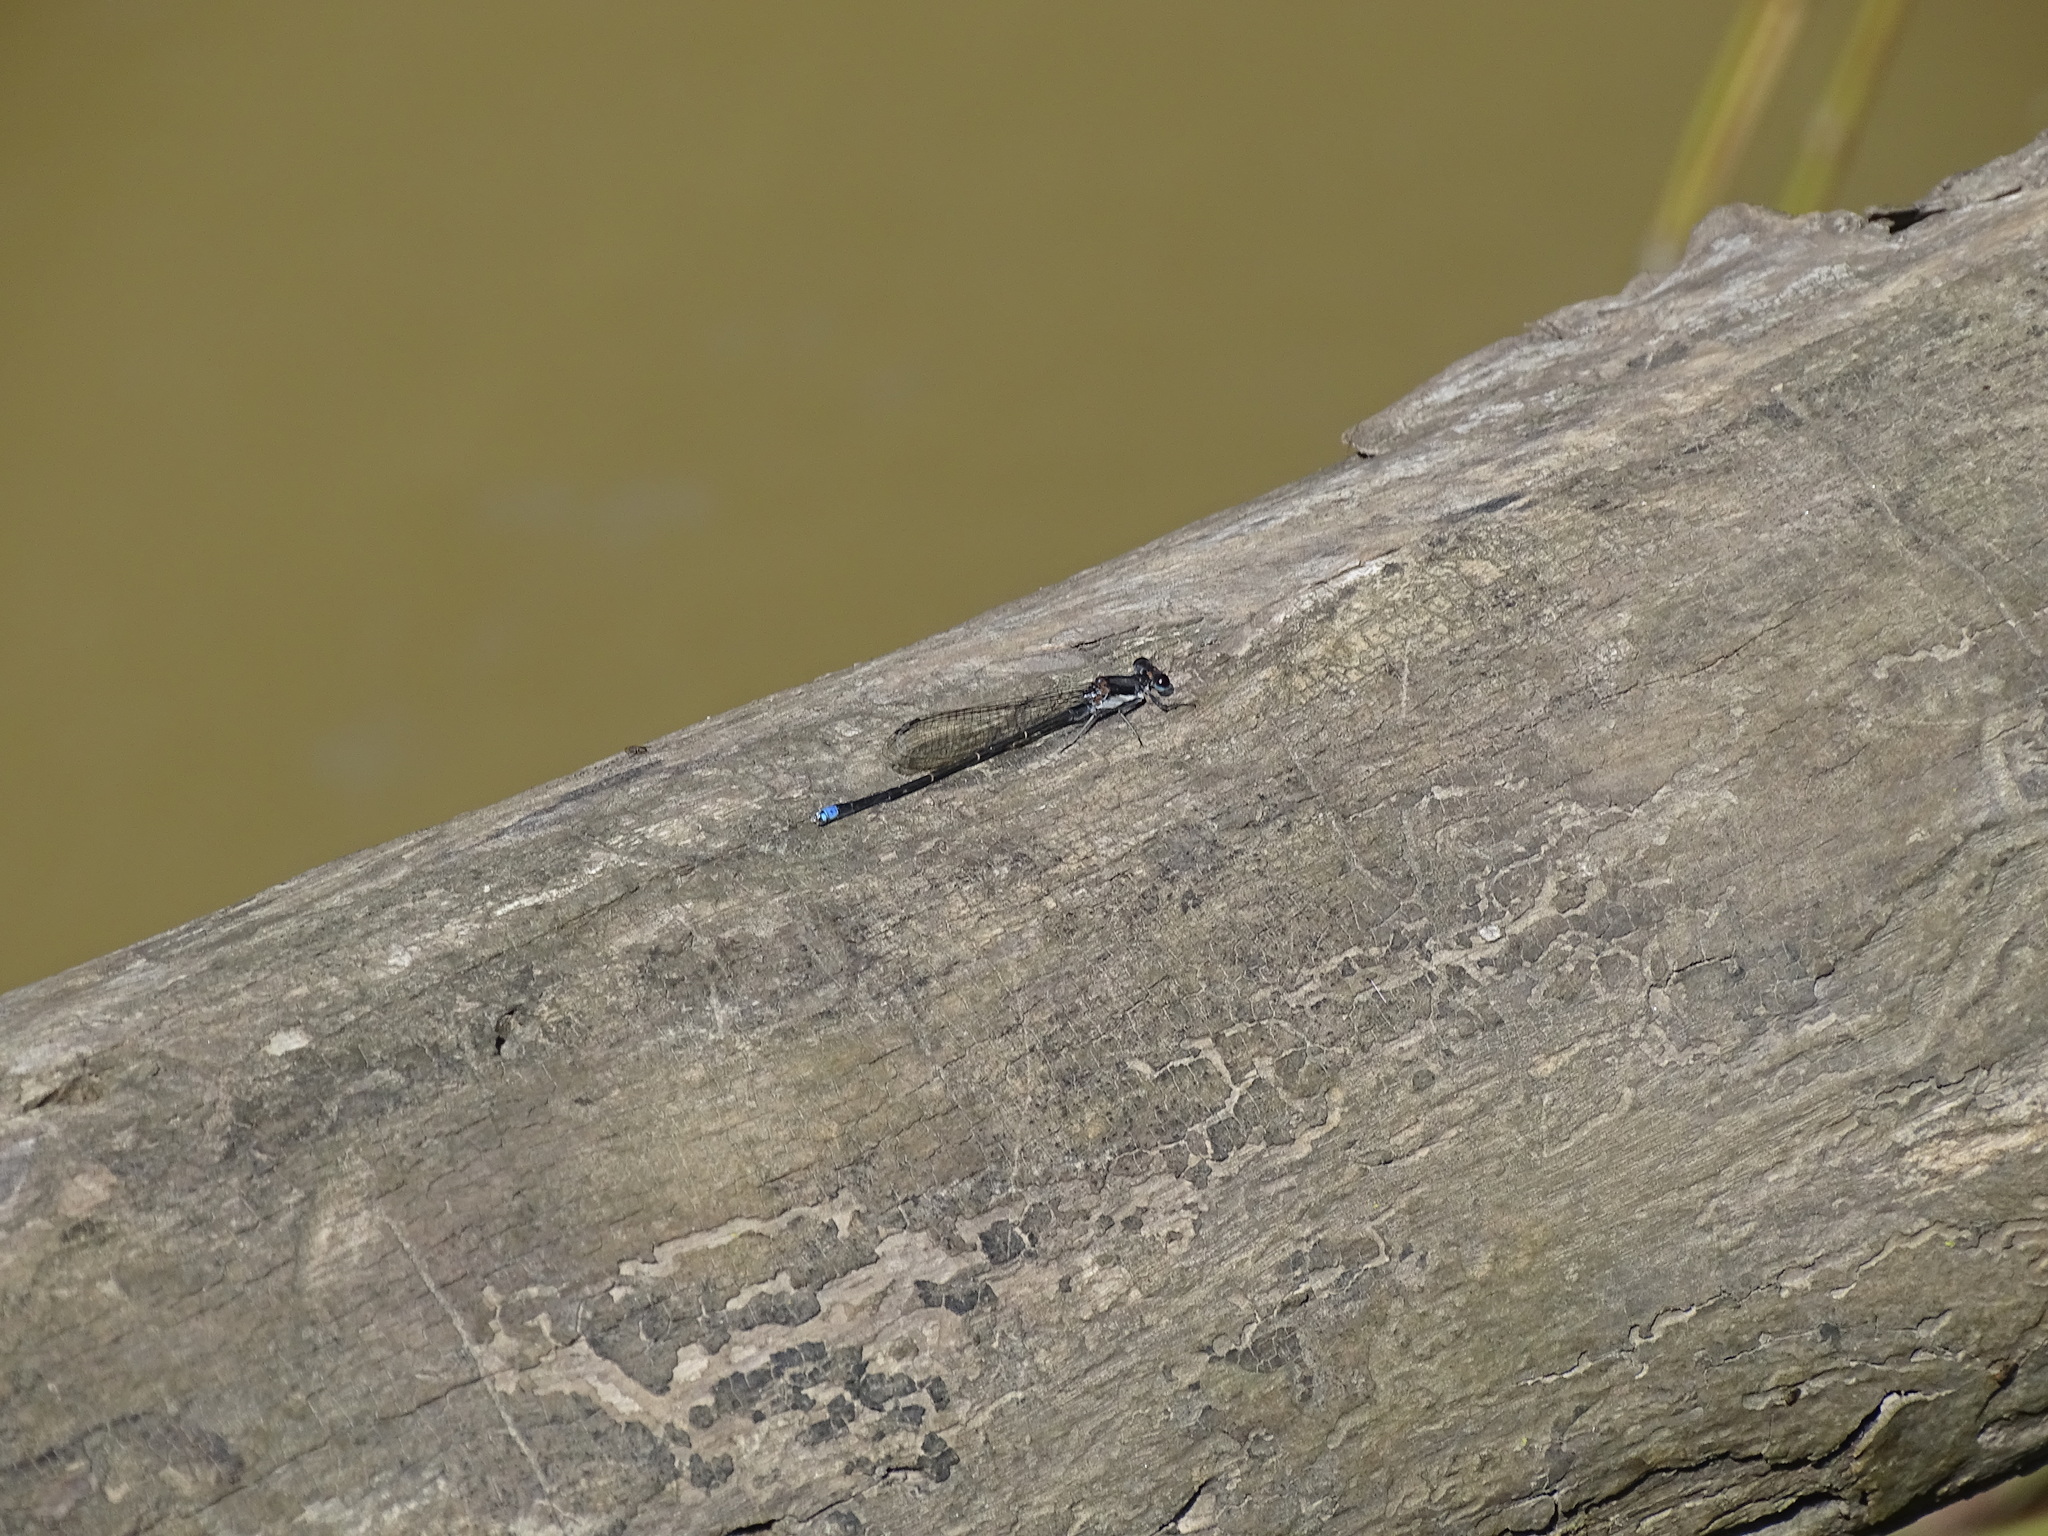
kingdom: Animalia
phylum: Arthropoda
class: Insecta
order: Odonata
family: Coenagrionidae
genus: Argia
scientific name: Argia tibialis
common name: Blue-tipped dancer
